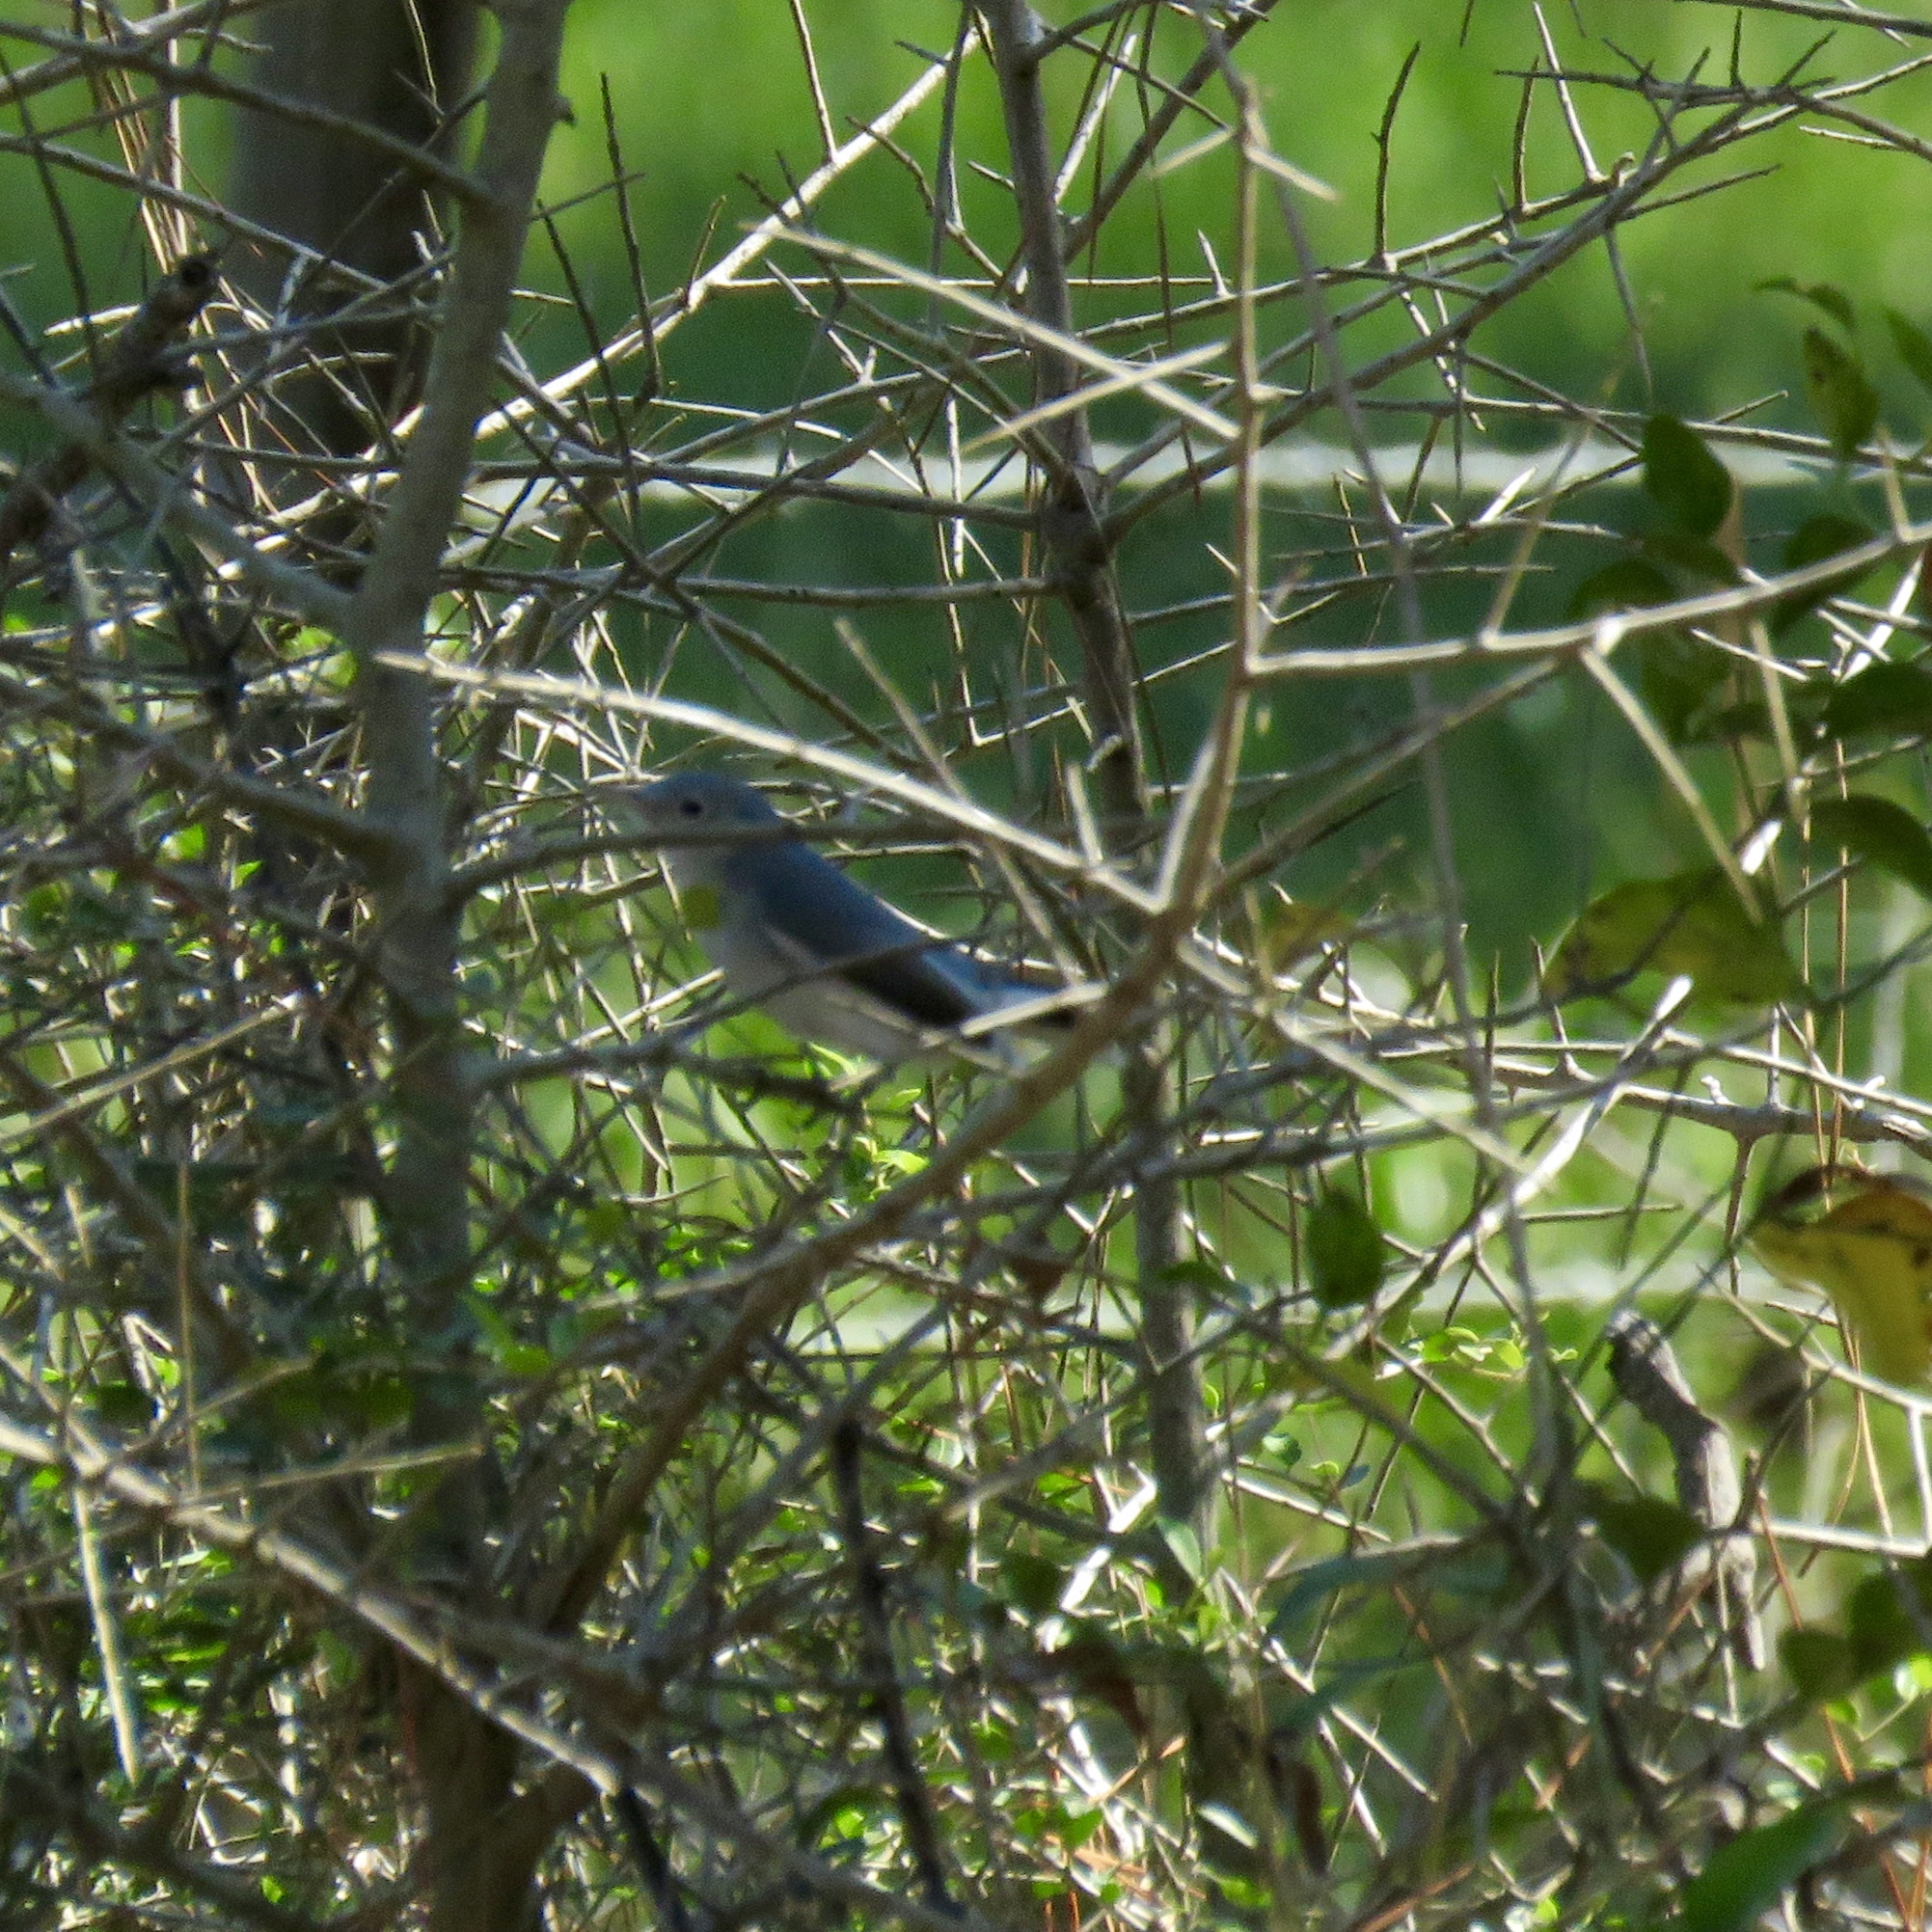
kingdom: Animalia
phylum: Chordata
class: Aves
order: Passeriformes
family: Polioptilidae
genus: Polioptila
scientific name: Polioptila caerulea
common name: Blue-gray gnatcatcher
